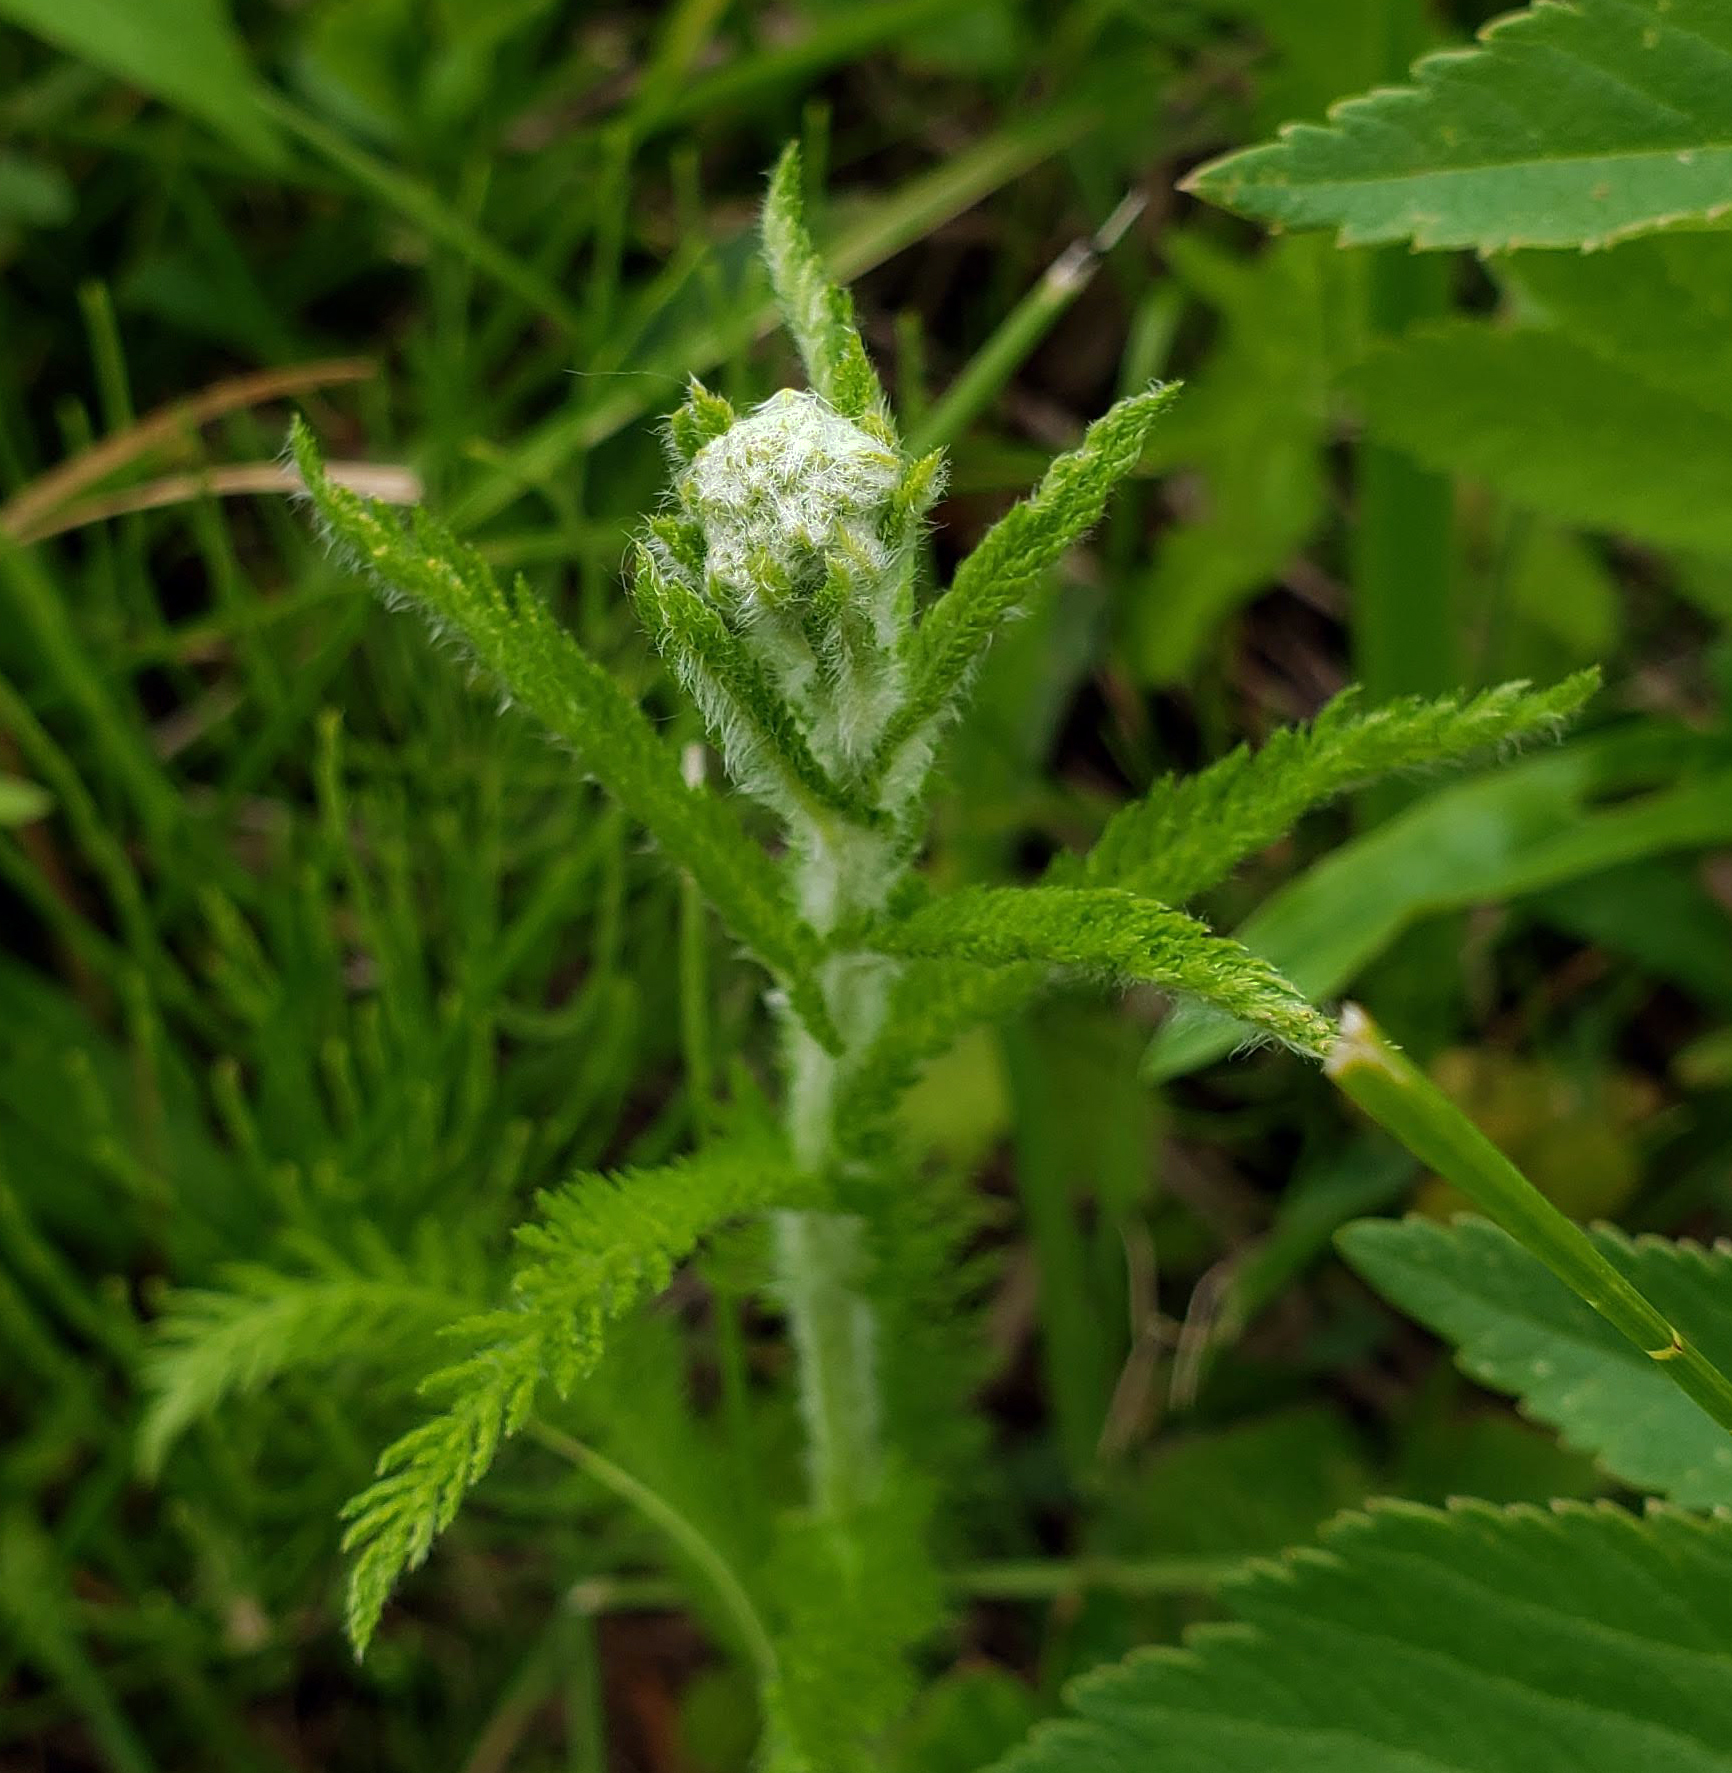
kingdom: Plantae
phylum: Tracheophyta
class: Magnoliopsida
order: Asterales
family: Asteraceae
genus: Achillea
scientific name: Achillea millefolium
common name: Yarrow
